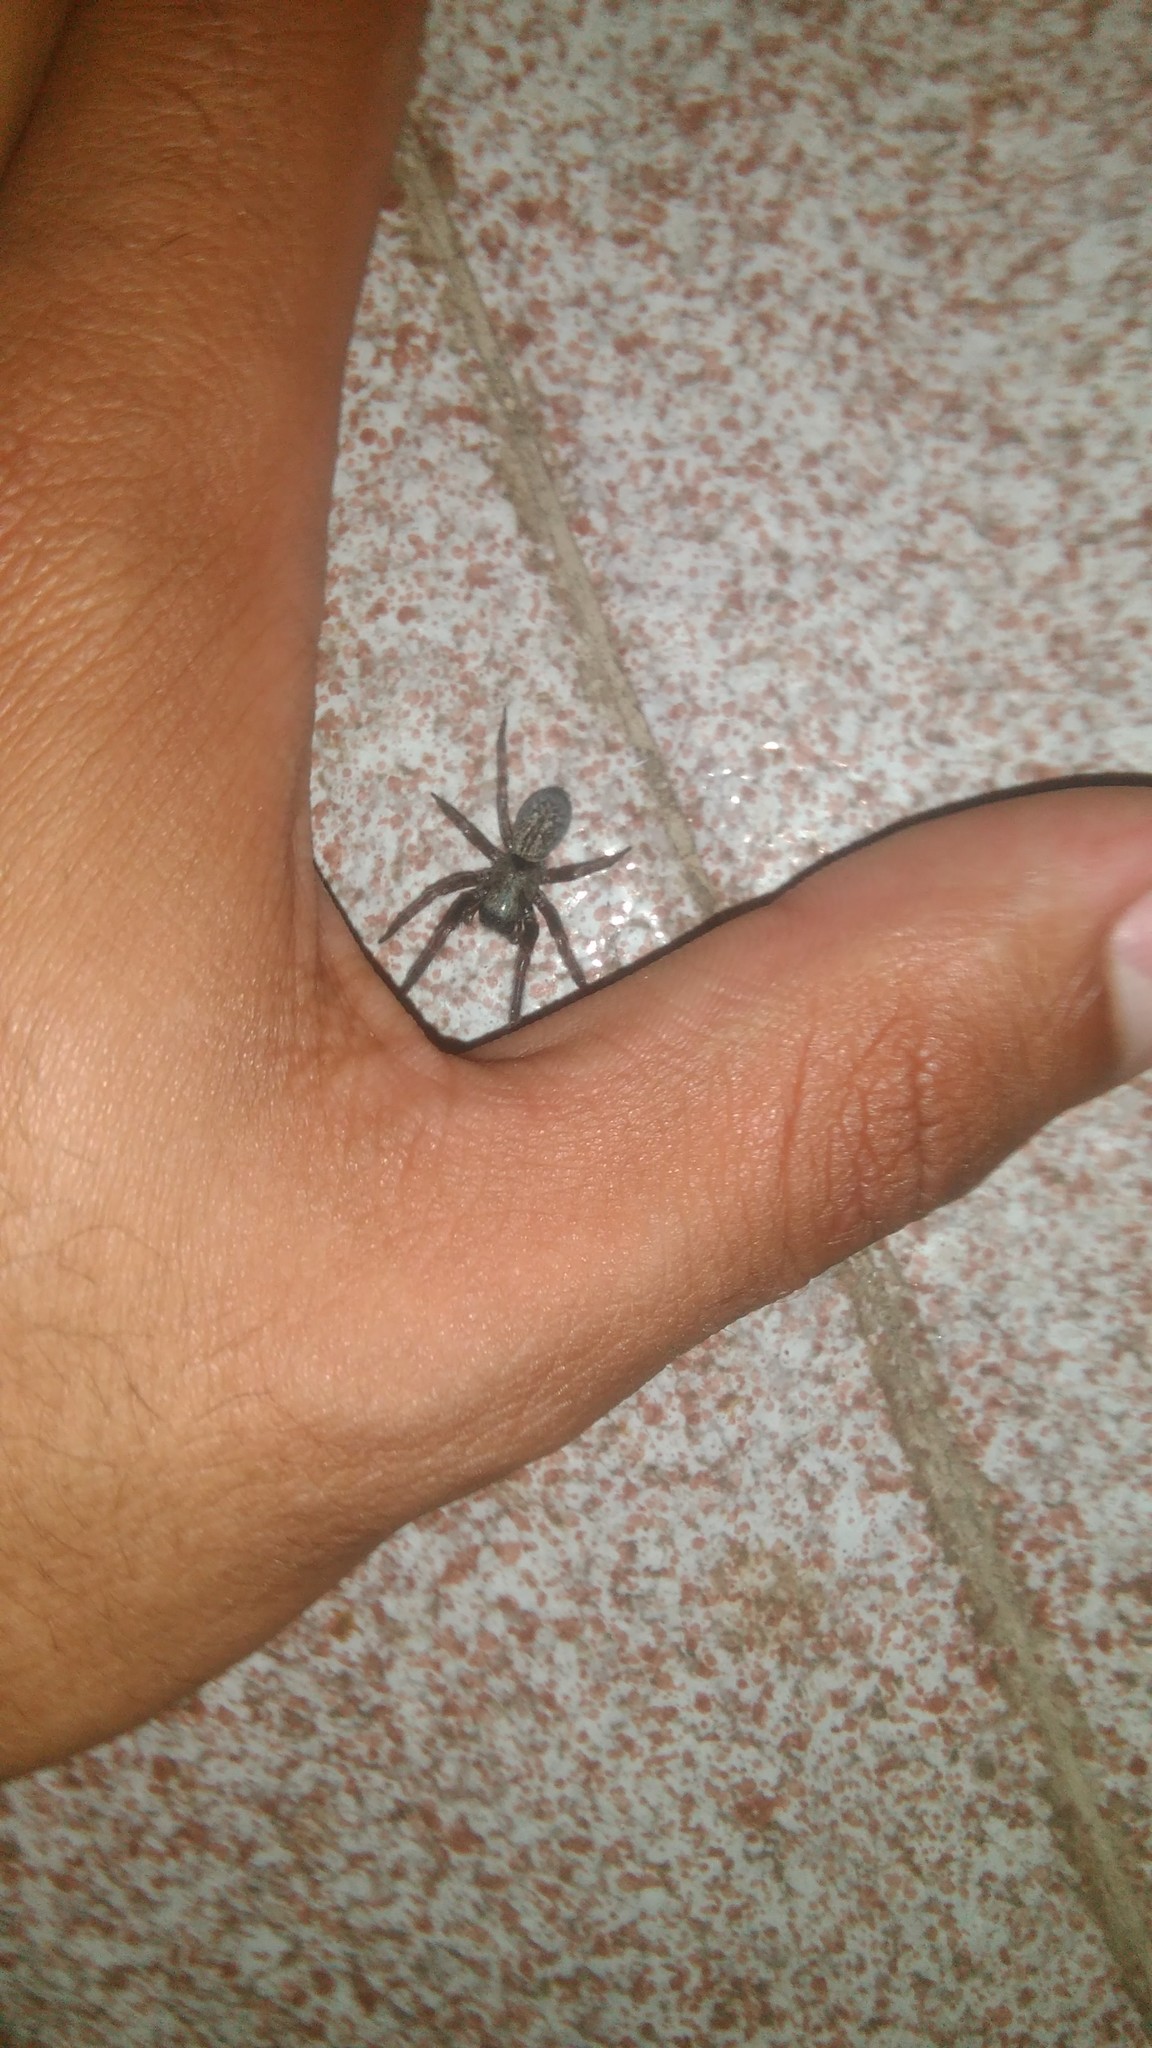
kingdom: Animalia
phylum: Arthropoda
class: Arachnida
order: Araneae
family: Desidae
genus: Badumna
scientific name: Badumna longinqua
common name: Gray house spider
